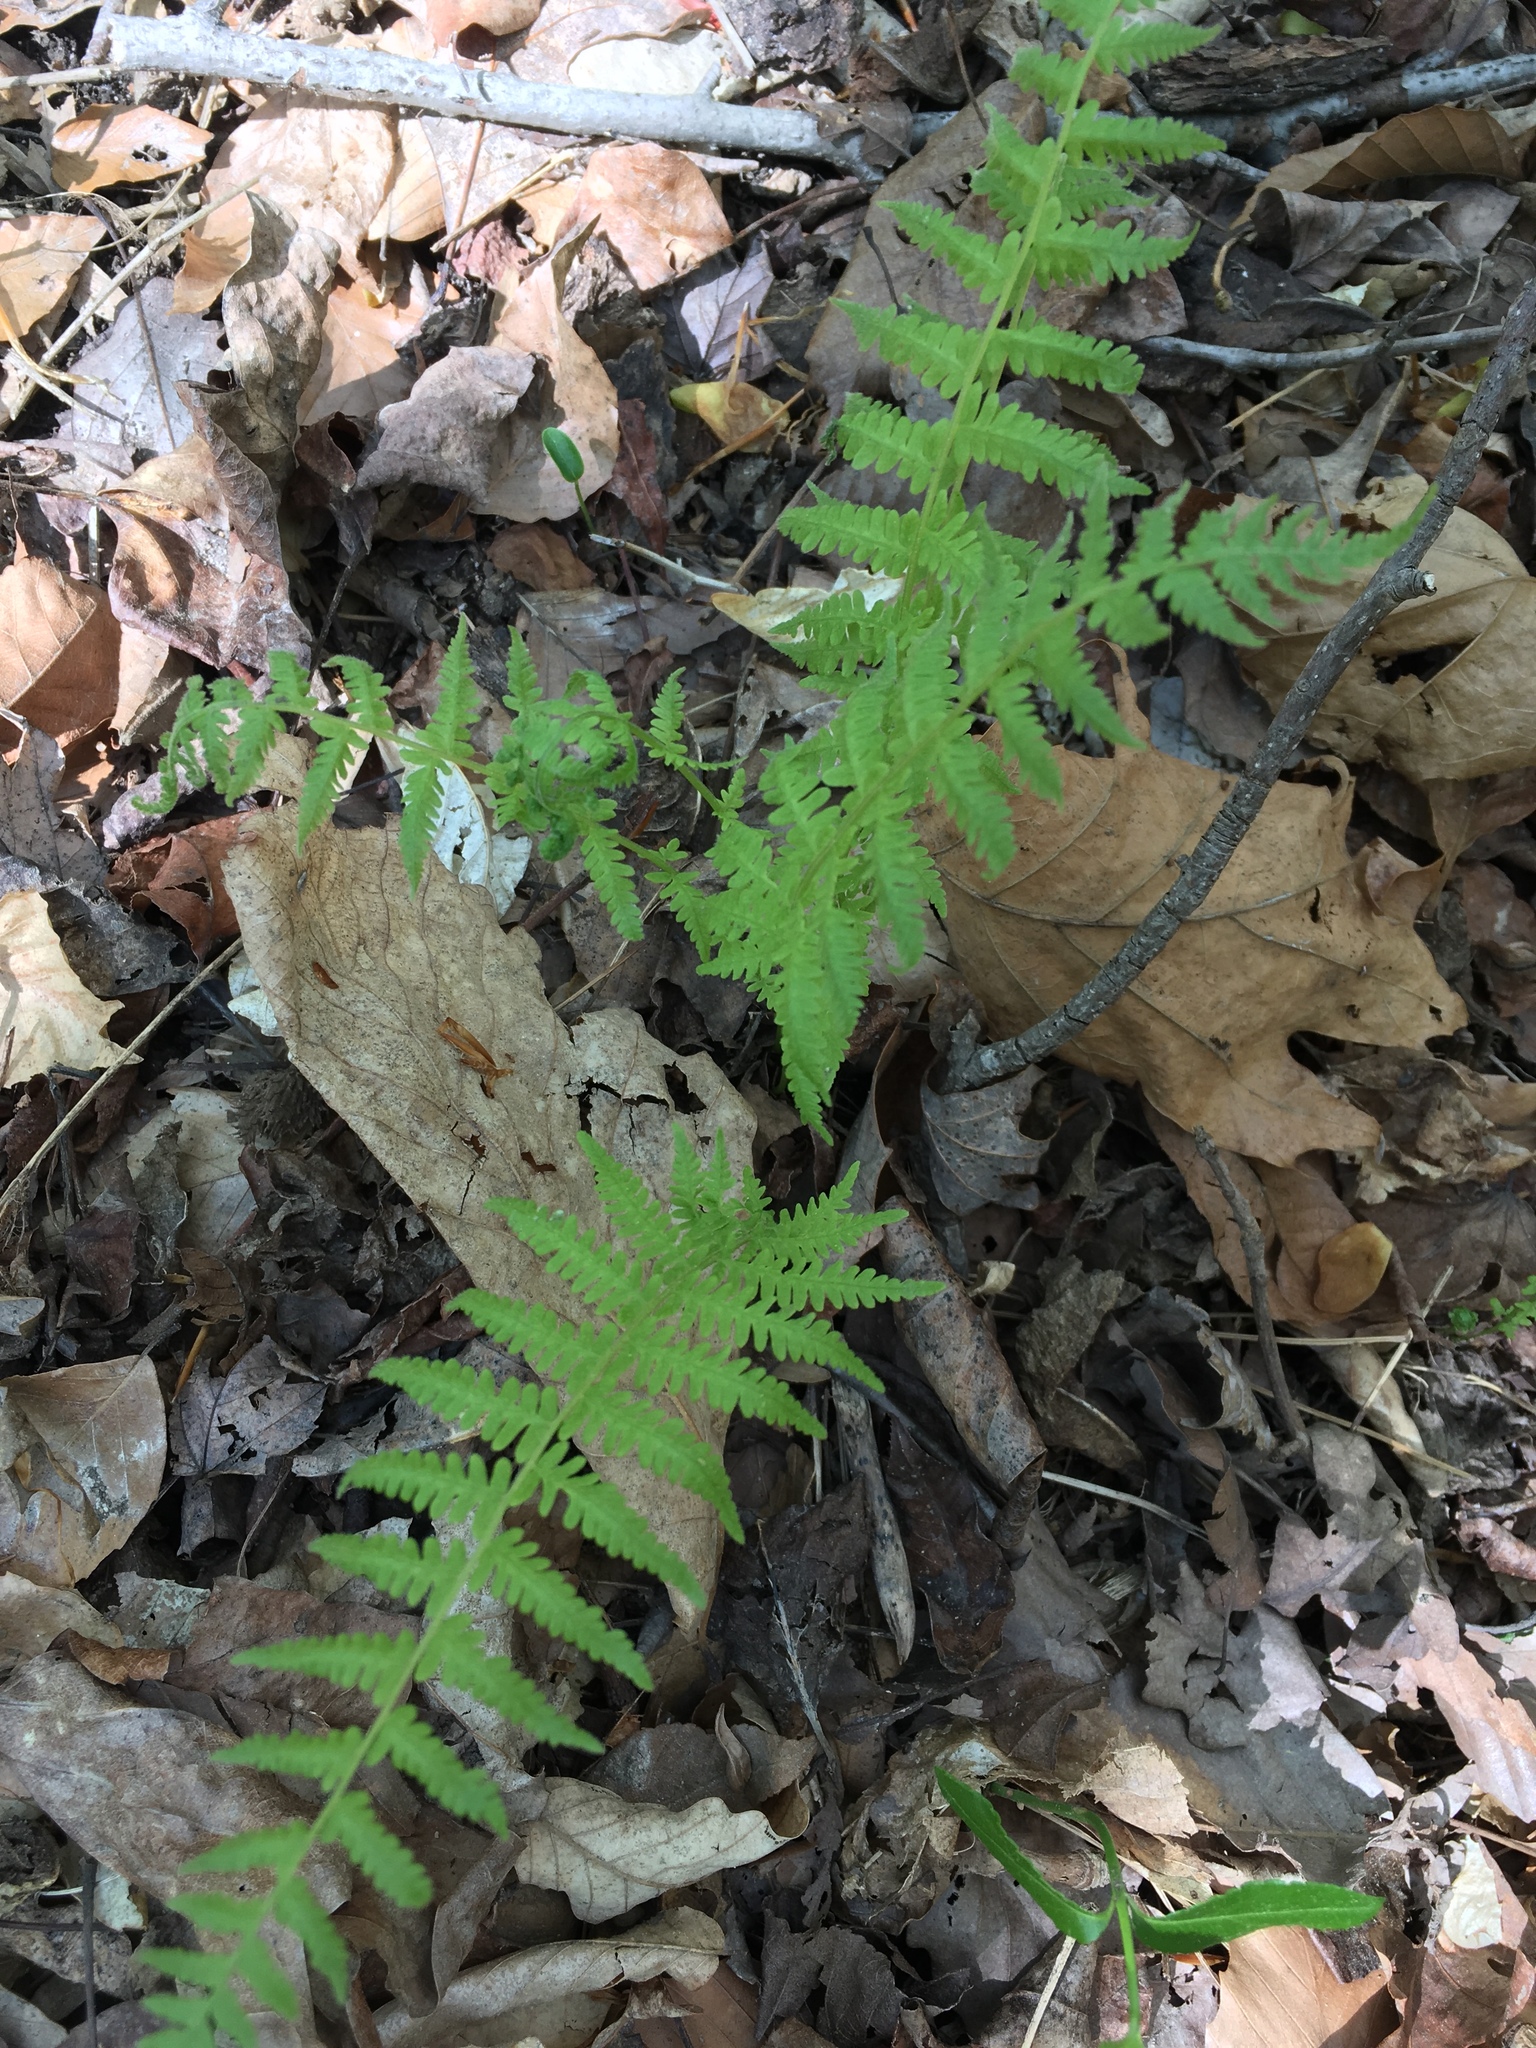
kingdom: Plantae
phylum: Tracheophyta
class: Polypodiopsida
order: Polypodiales
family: Thelypteridaceae
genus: Amauropelta
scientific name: Amauropelta noveboracensis
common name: New york fern
